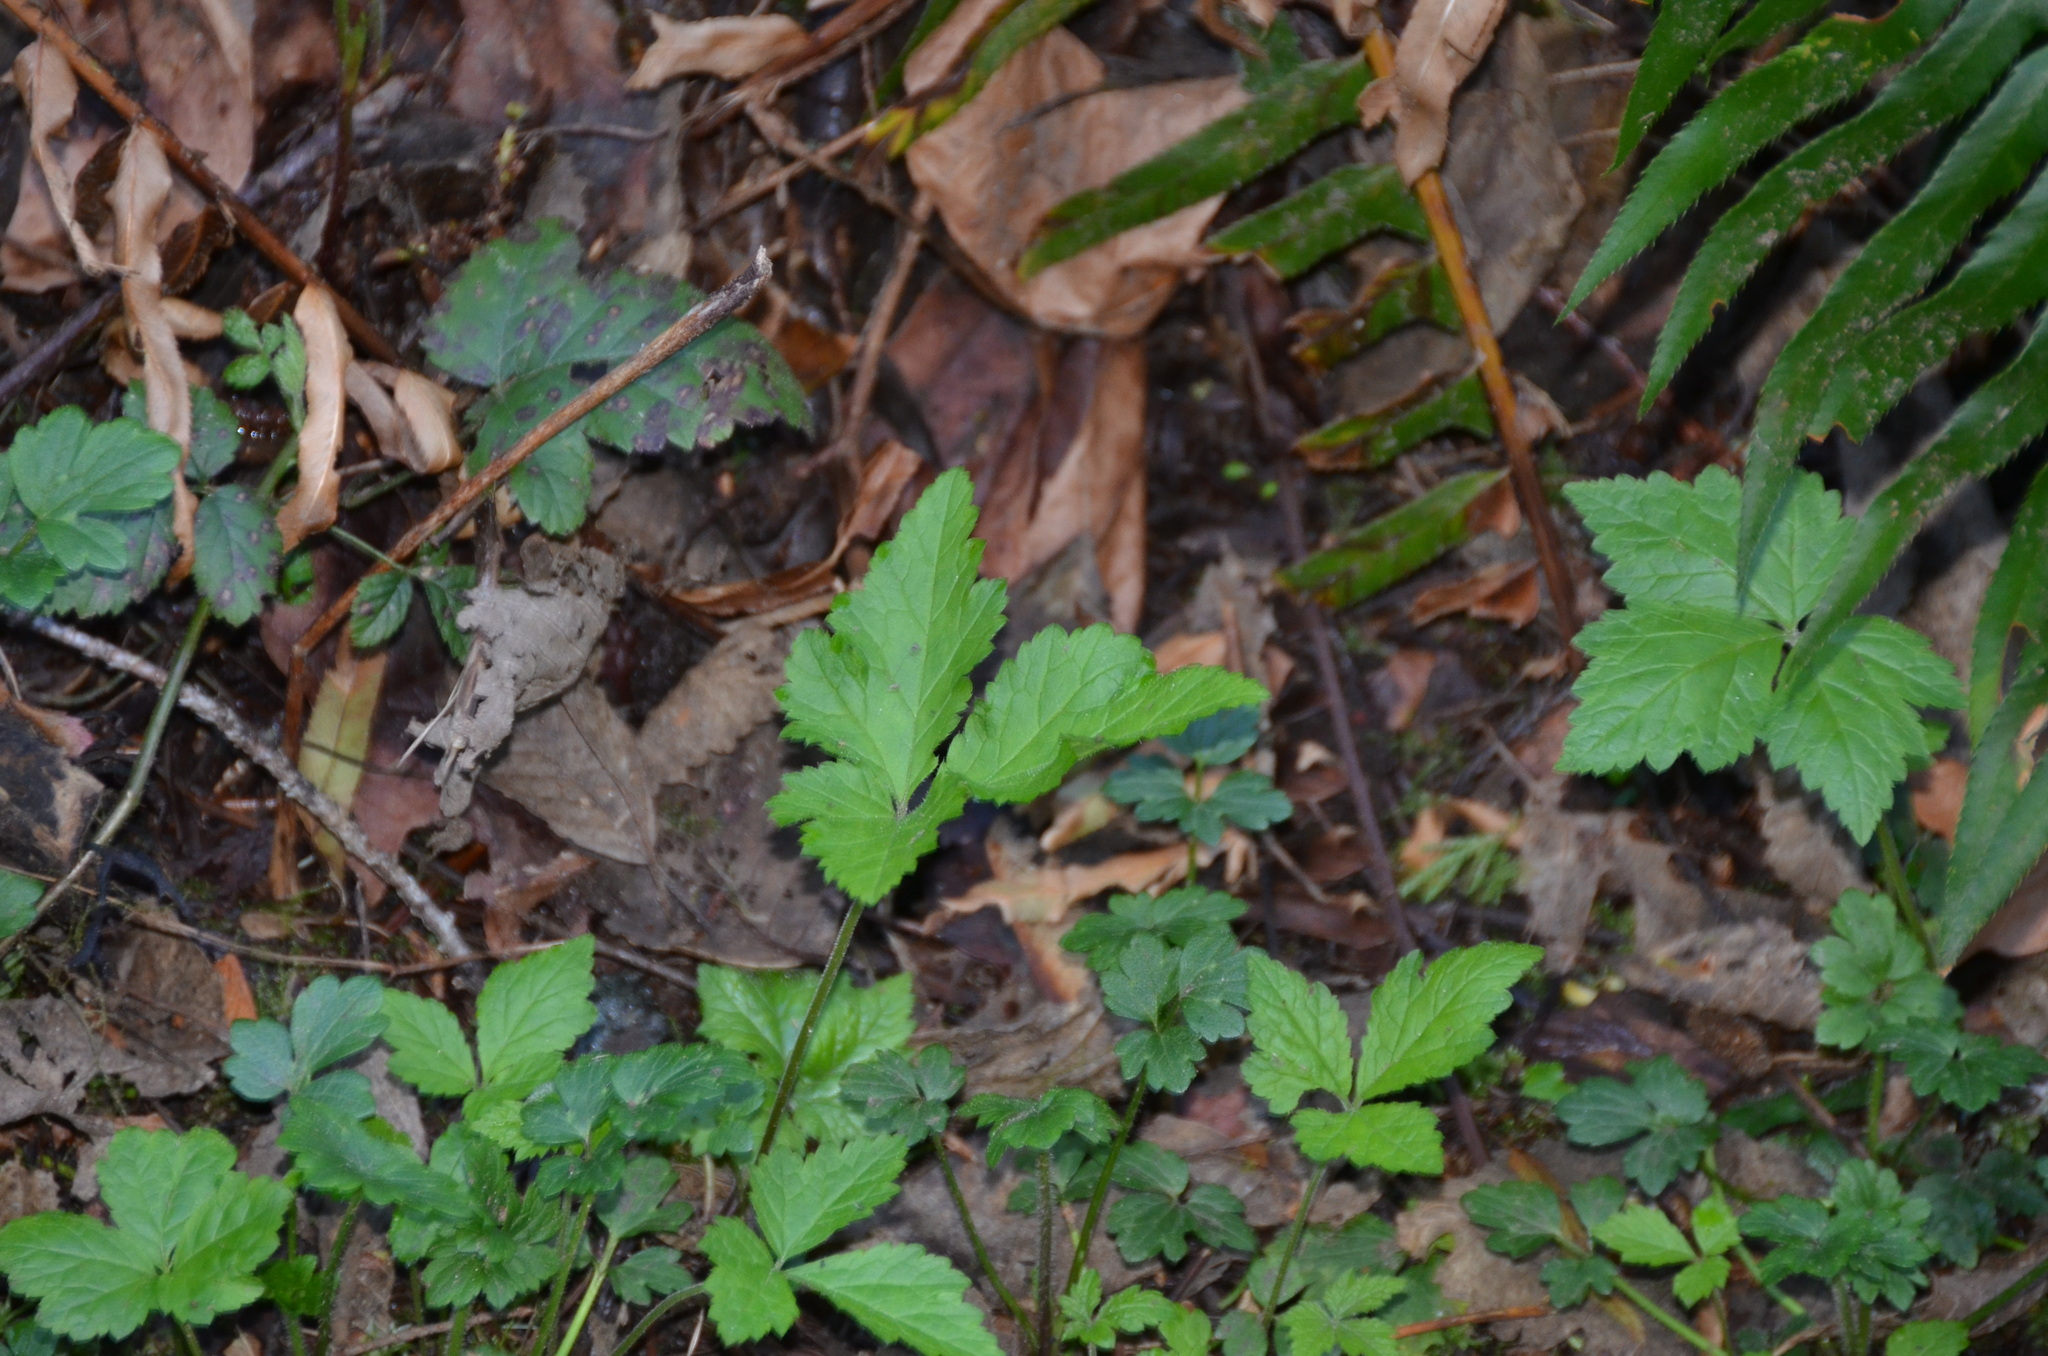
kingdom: Plantae
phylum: Tracheophyta
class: Magnoliopsida
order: Rosales
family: Rosaceae
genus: Rubus
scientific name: Rubus ursinus
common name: Pacific blackberry
